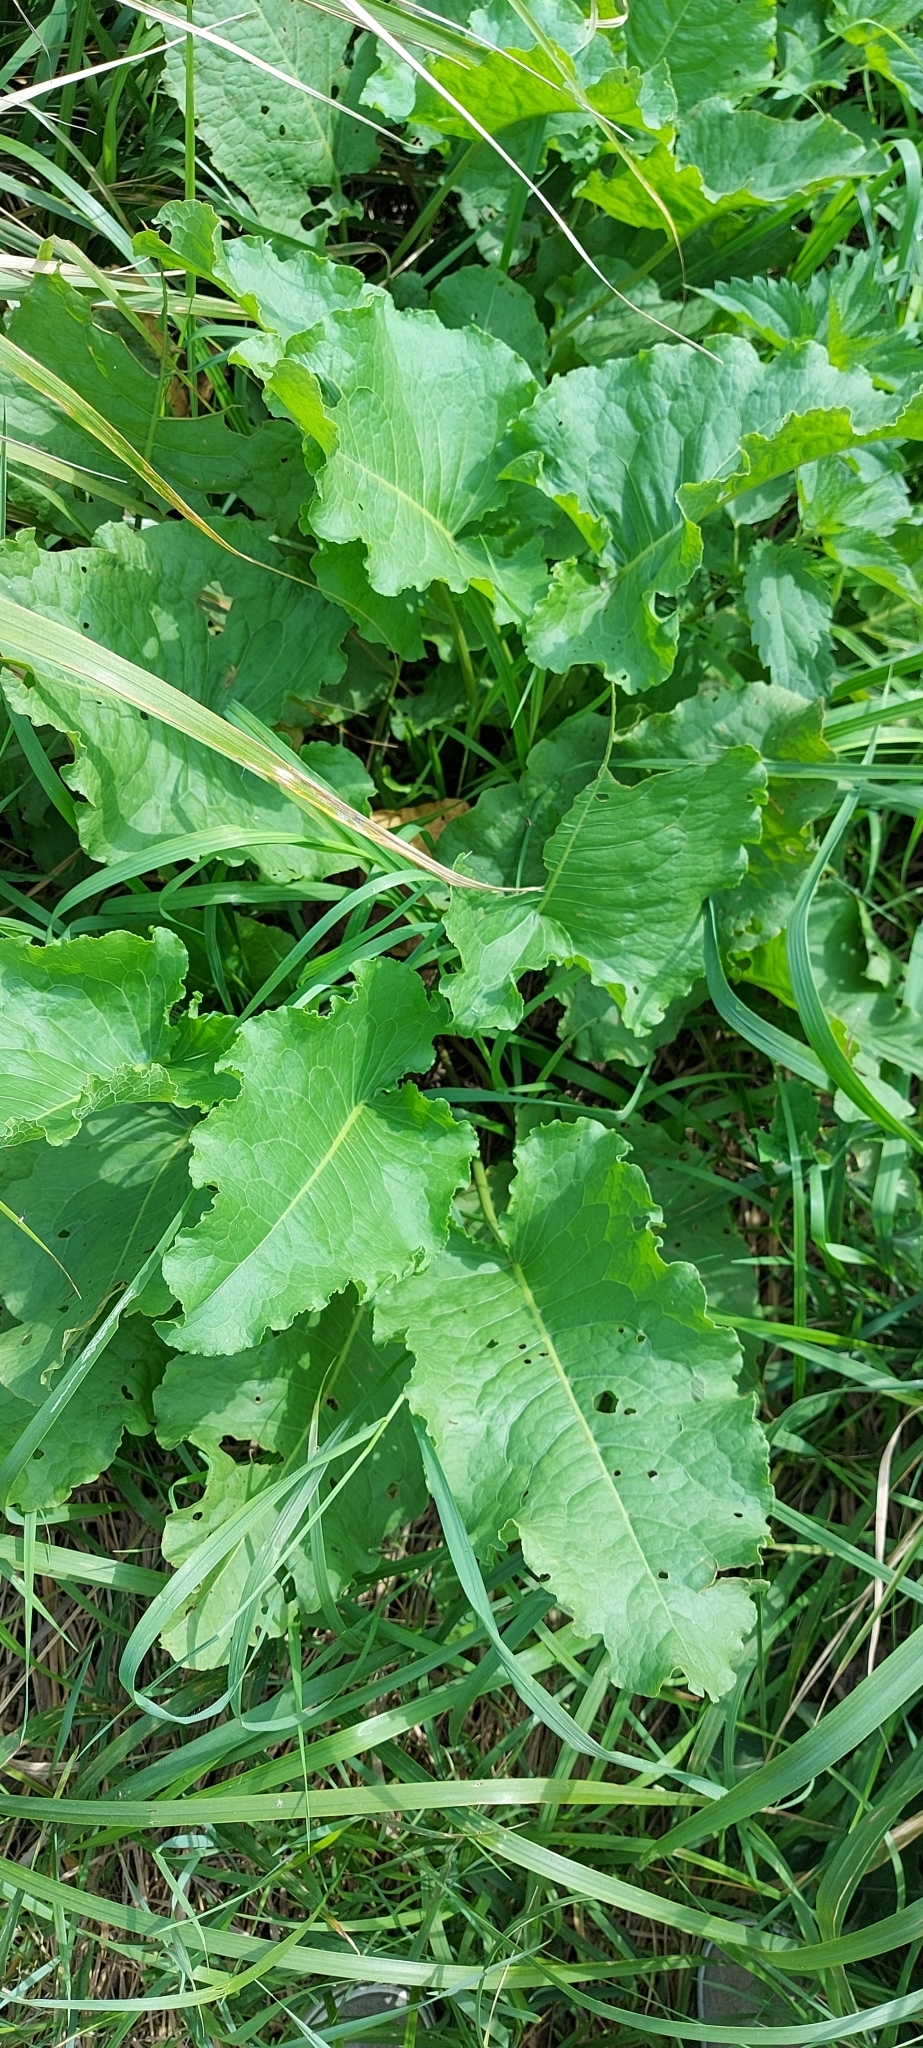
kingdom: Plantae
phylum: Tracheophyta
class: Magnoliopsida
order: Caryophyllales
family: Polygonaceae
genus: Rumex
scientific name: Rumex confertus
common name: Russian dock
